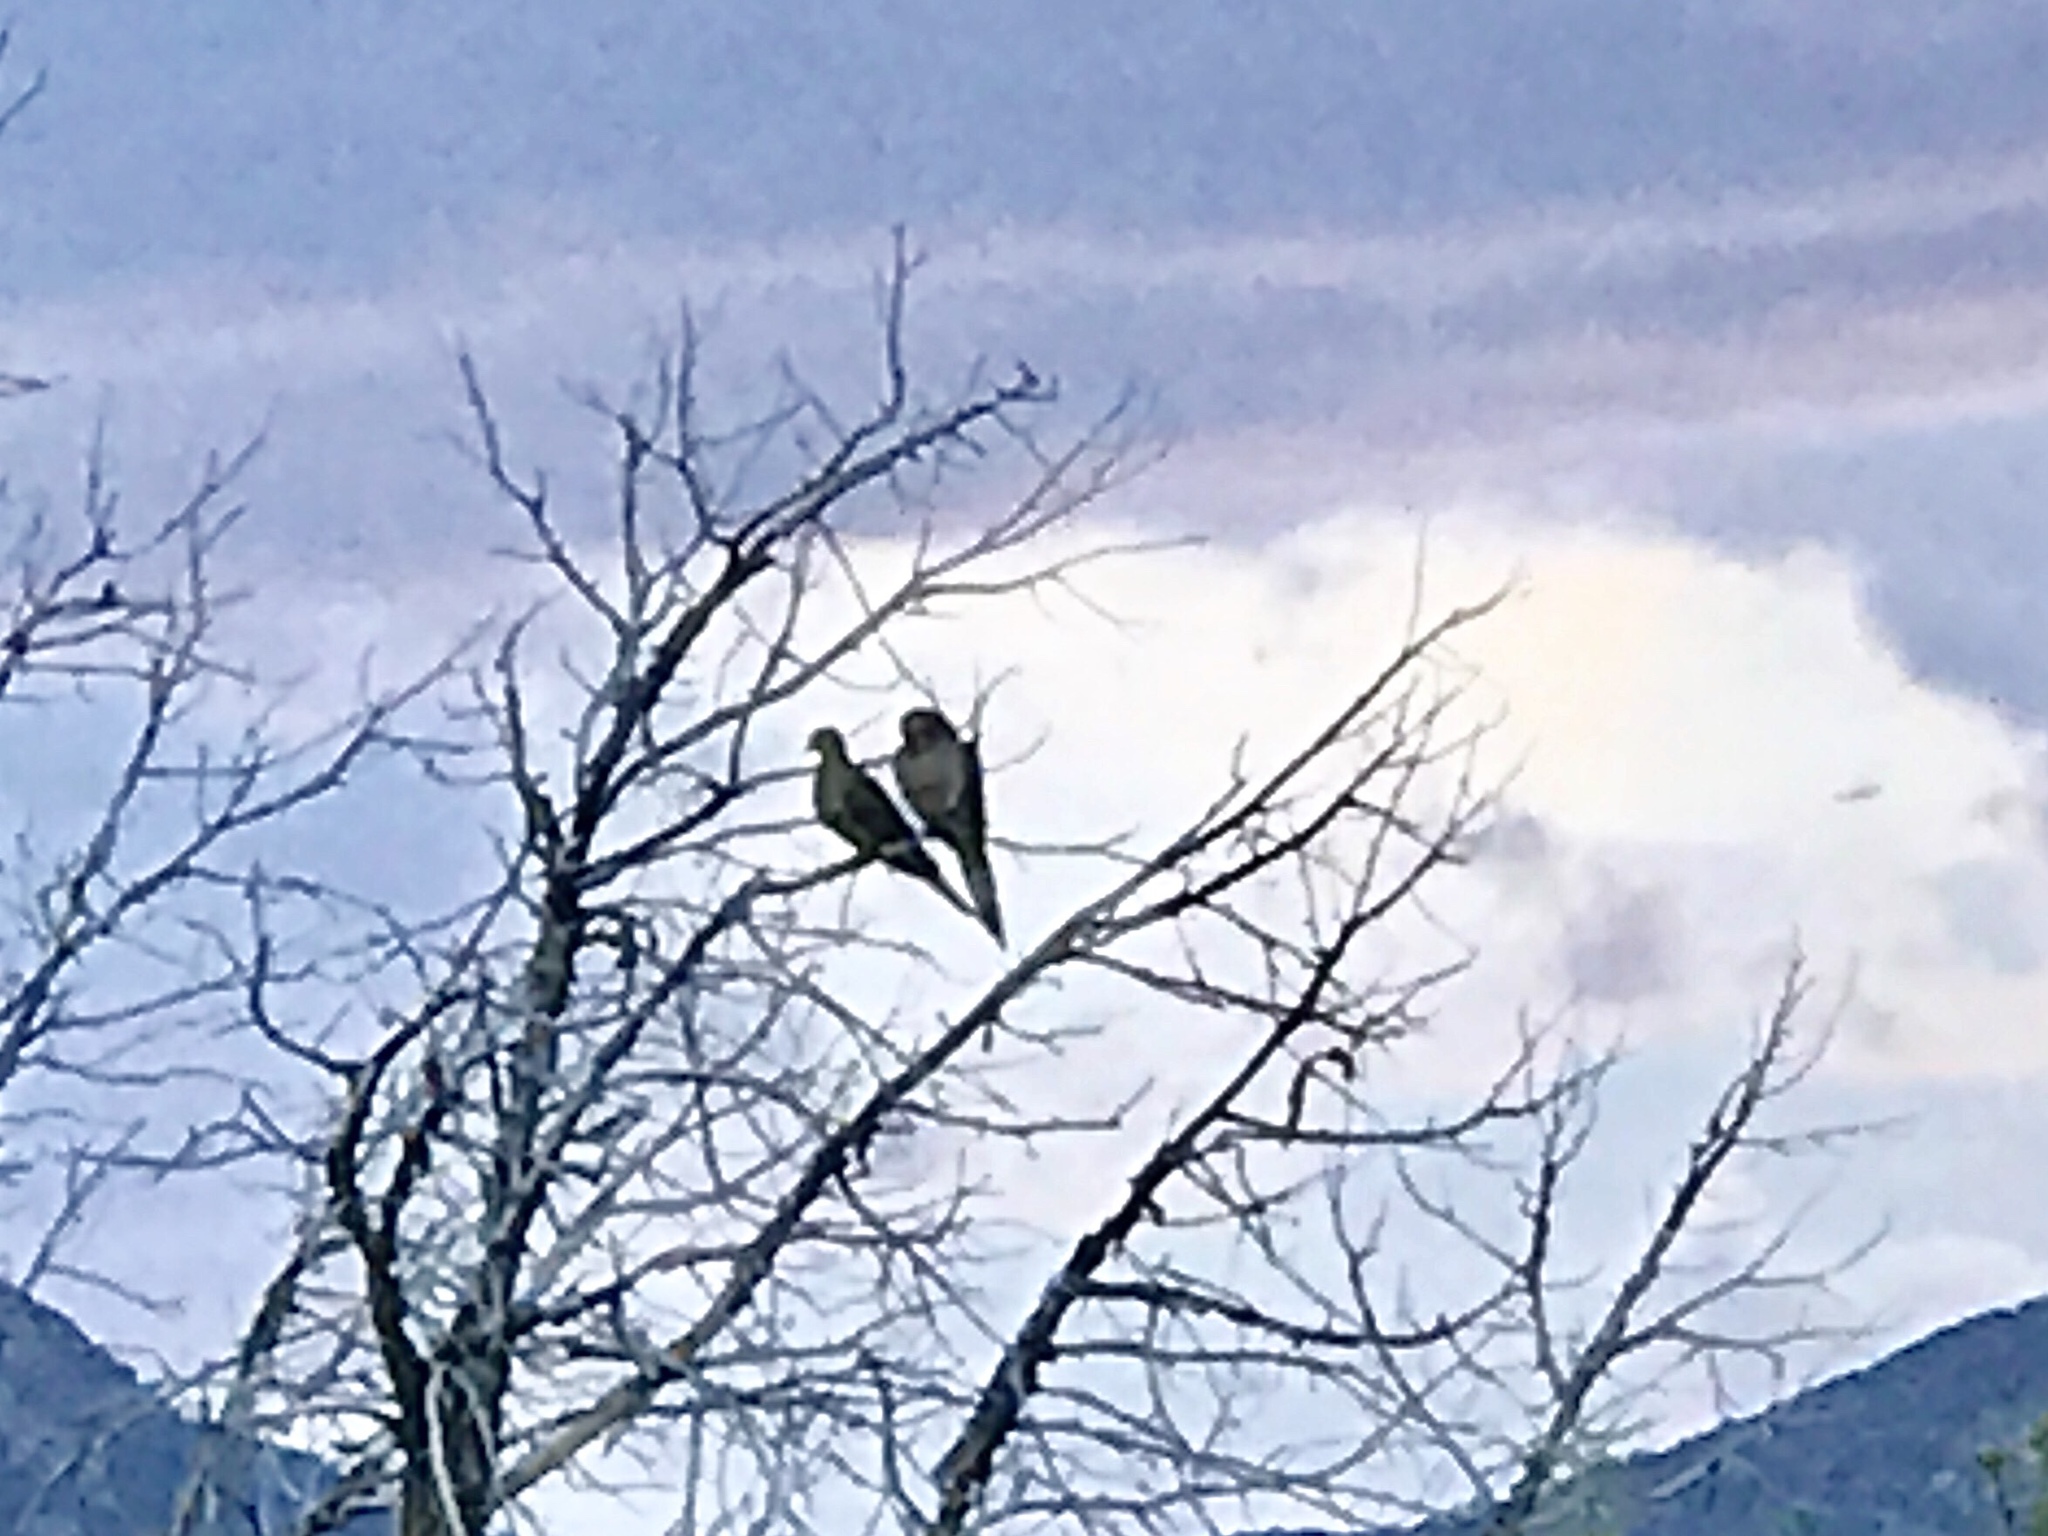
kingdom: Animalia
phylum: Chordata
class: Aves
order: Columbiformes
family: Columbidae
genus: Zenaida
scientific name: Zenaida macroura
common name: Mourning dove
